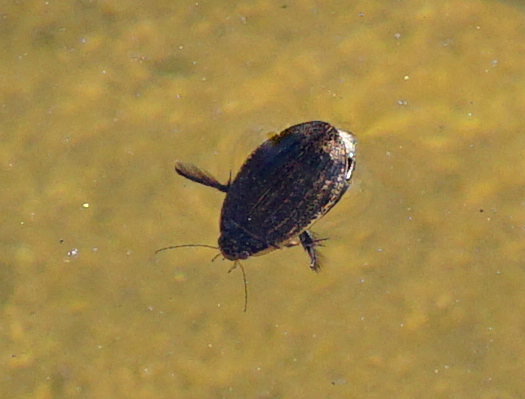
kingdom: Animalia
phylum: Arthropoda
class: Insecta
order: Coleoptera
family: Dytiscidae
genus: Acilius
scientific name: Acilius sulcatus
